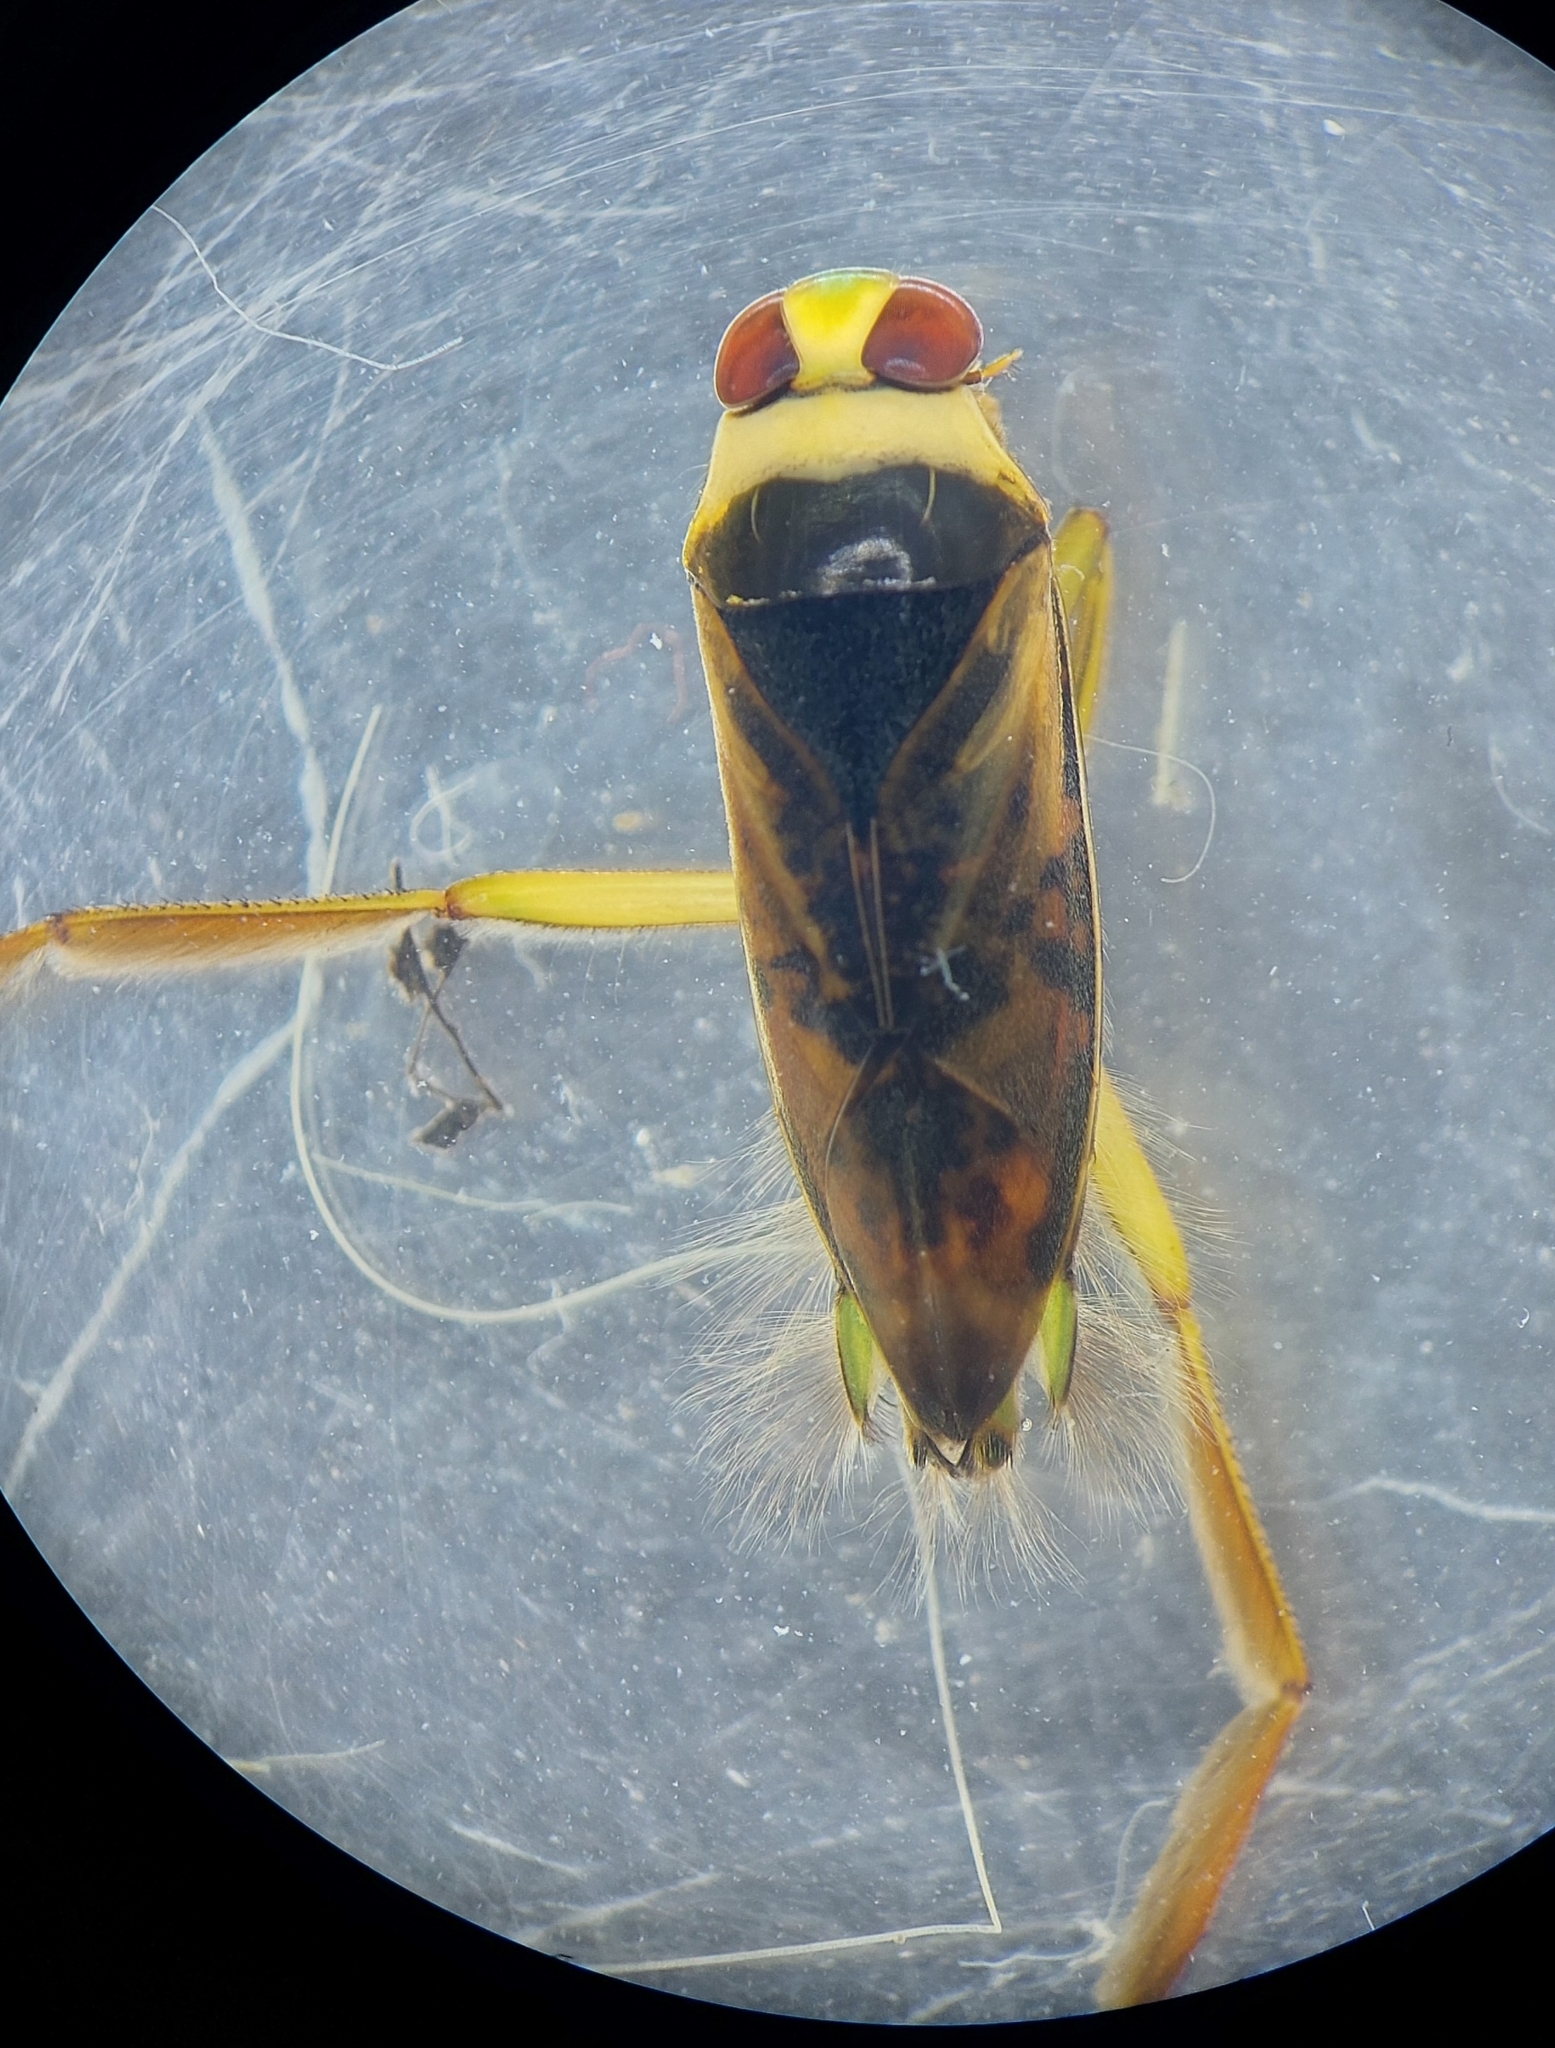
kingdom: Animalia
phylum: Arthropoda
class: Insecta
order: Hemiptera
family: Notonectidae
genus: Notonecta
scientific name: Notonecta maculata
